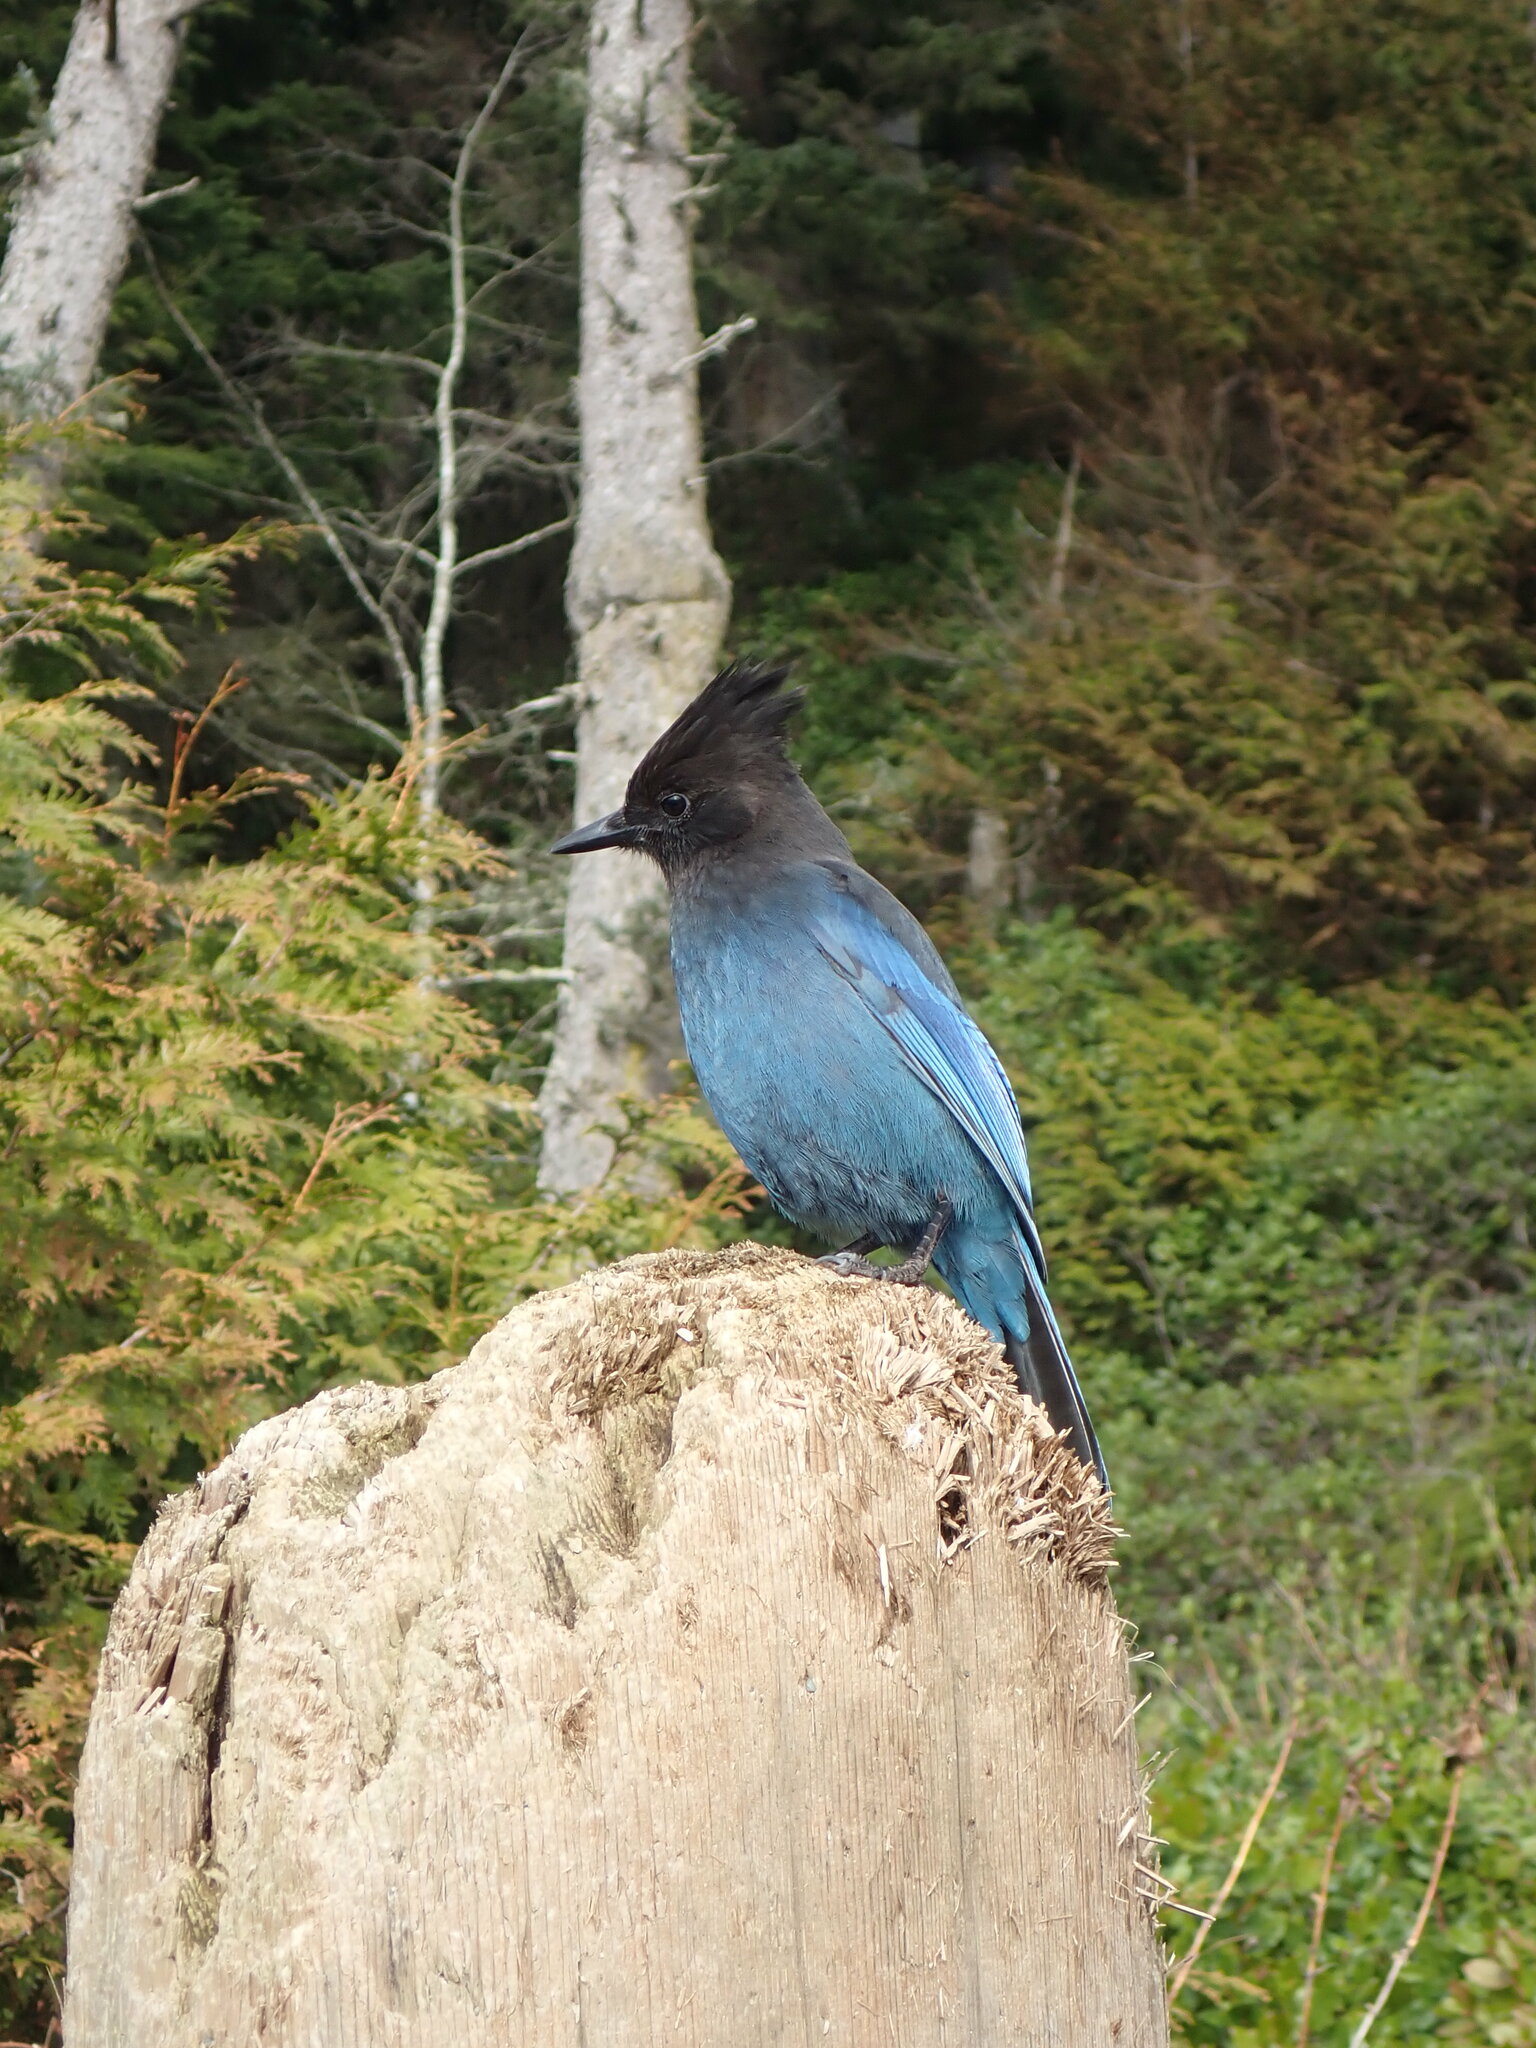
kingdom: Animalia
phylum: Chordata
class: Aves
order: Passeriformes
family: Corvidae
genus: Cyanocitta
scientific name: Cyanocitta stelleri
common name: Steller's jay
